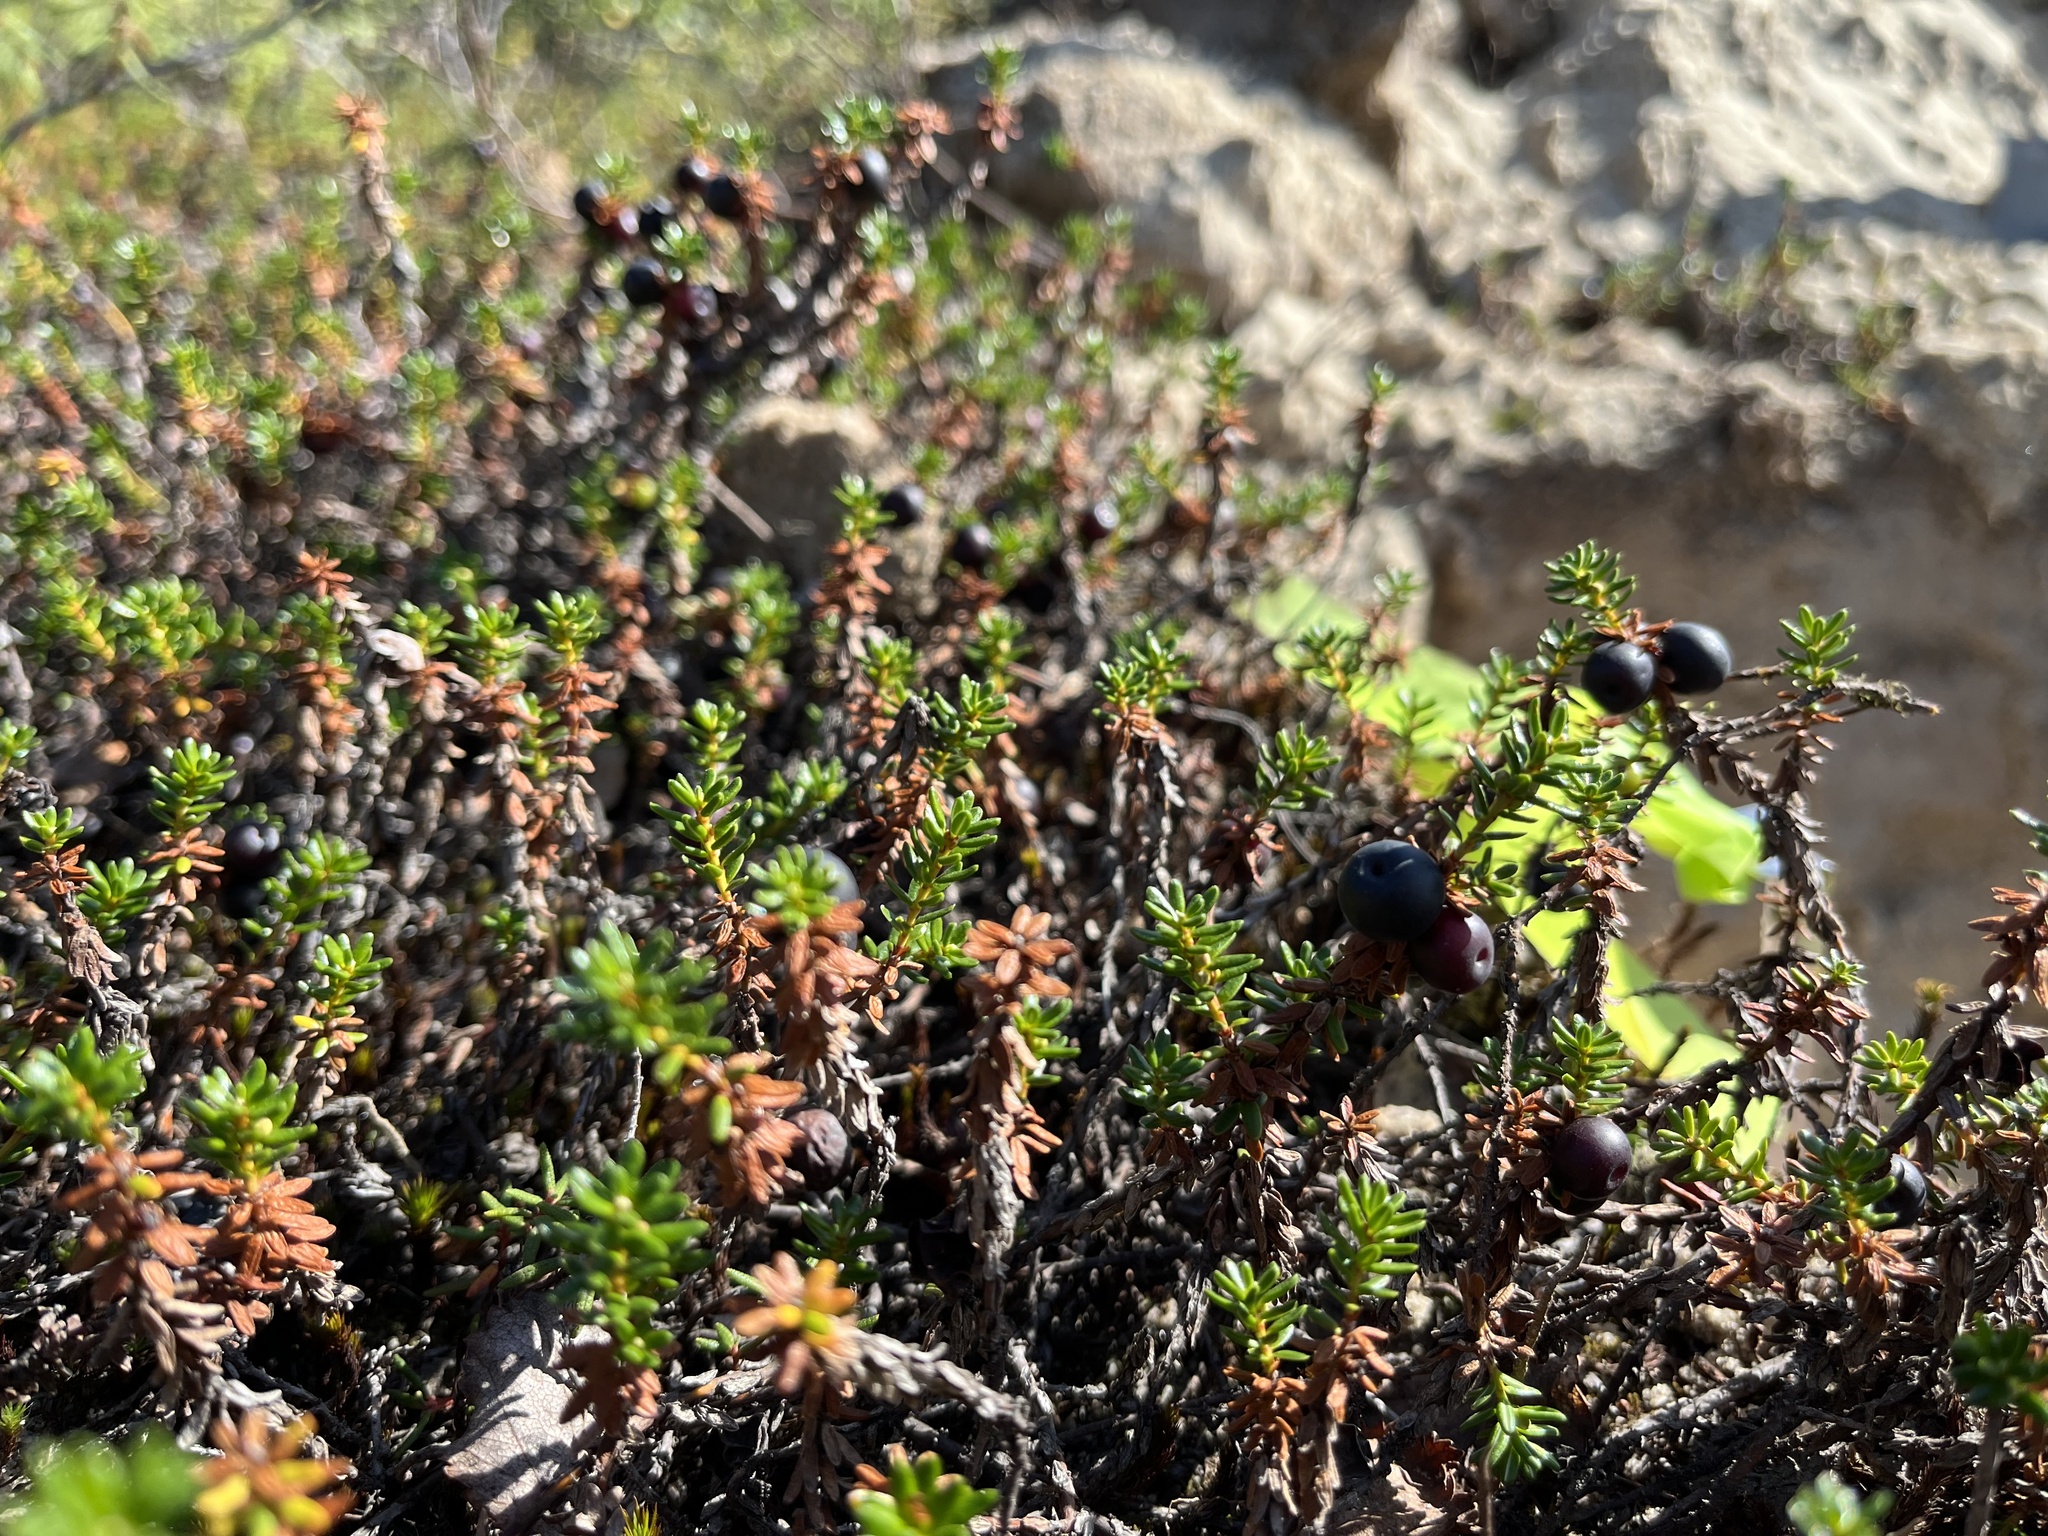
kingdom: Plantae
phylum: Tracheophyta
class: Magnoliopsida
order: Ericales
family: Ericaceae
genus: Empetrum
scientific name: Empetrum nigrum
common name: Black crowberry
